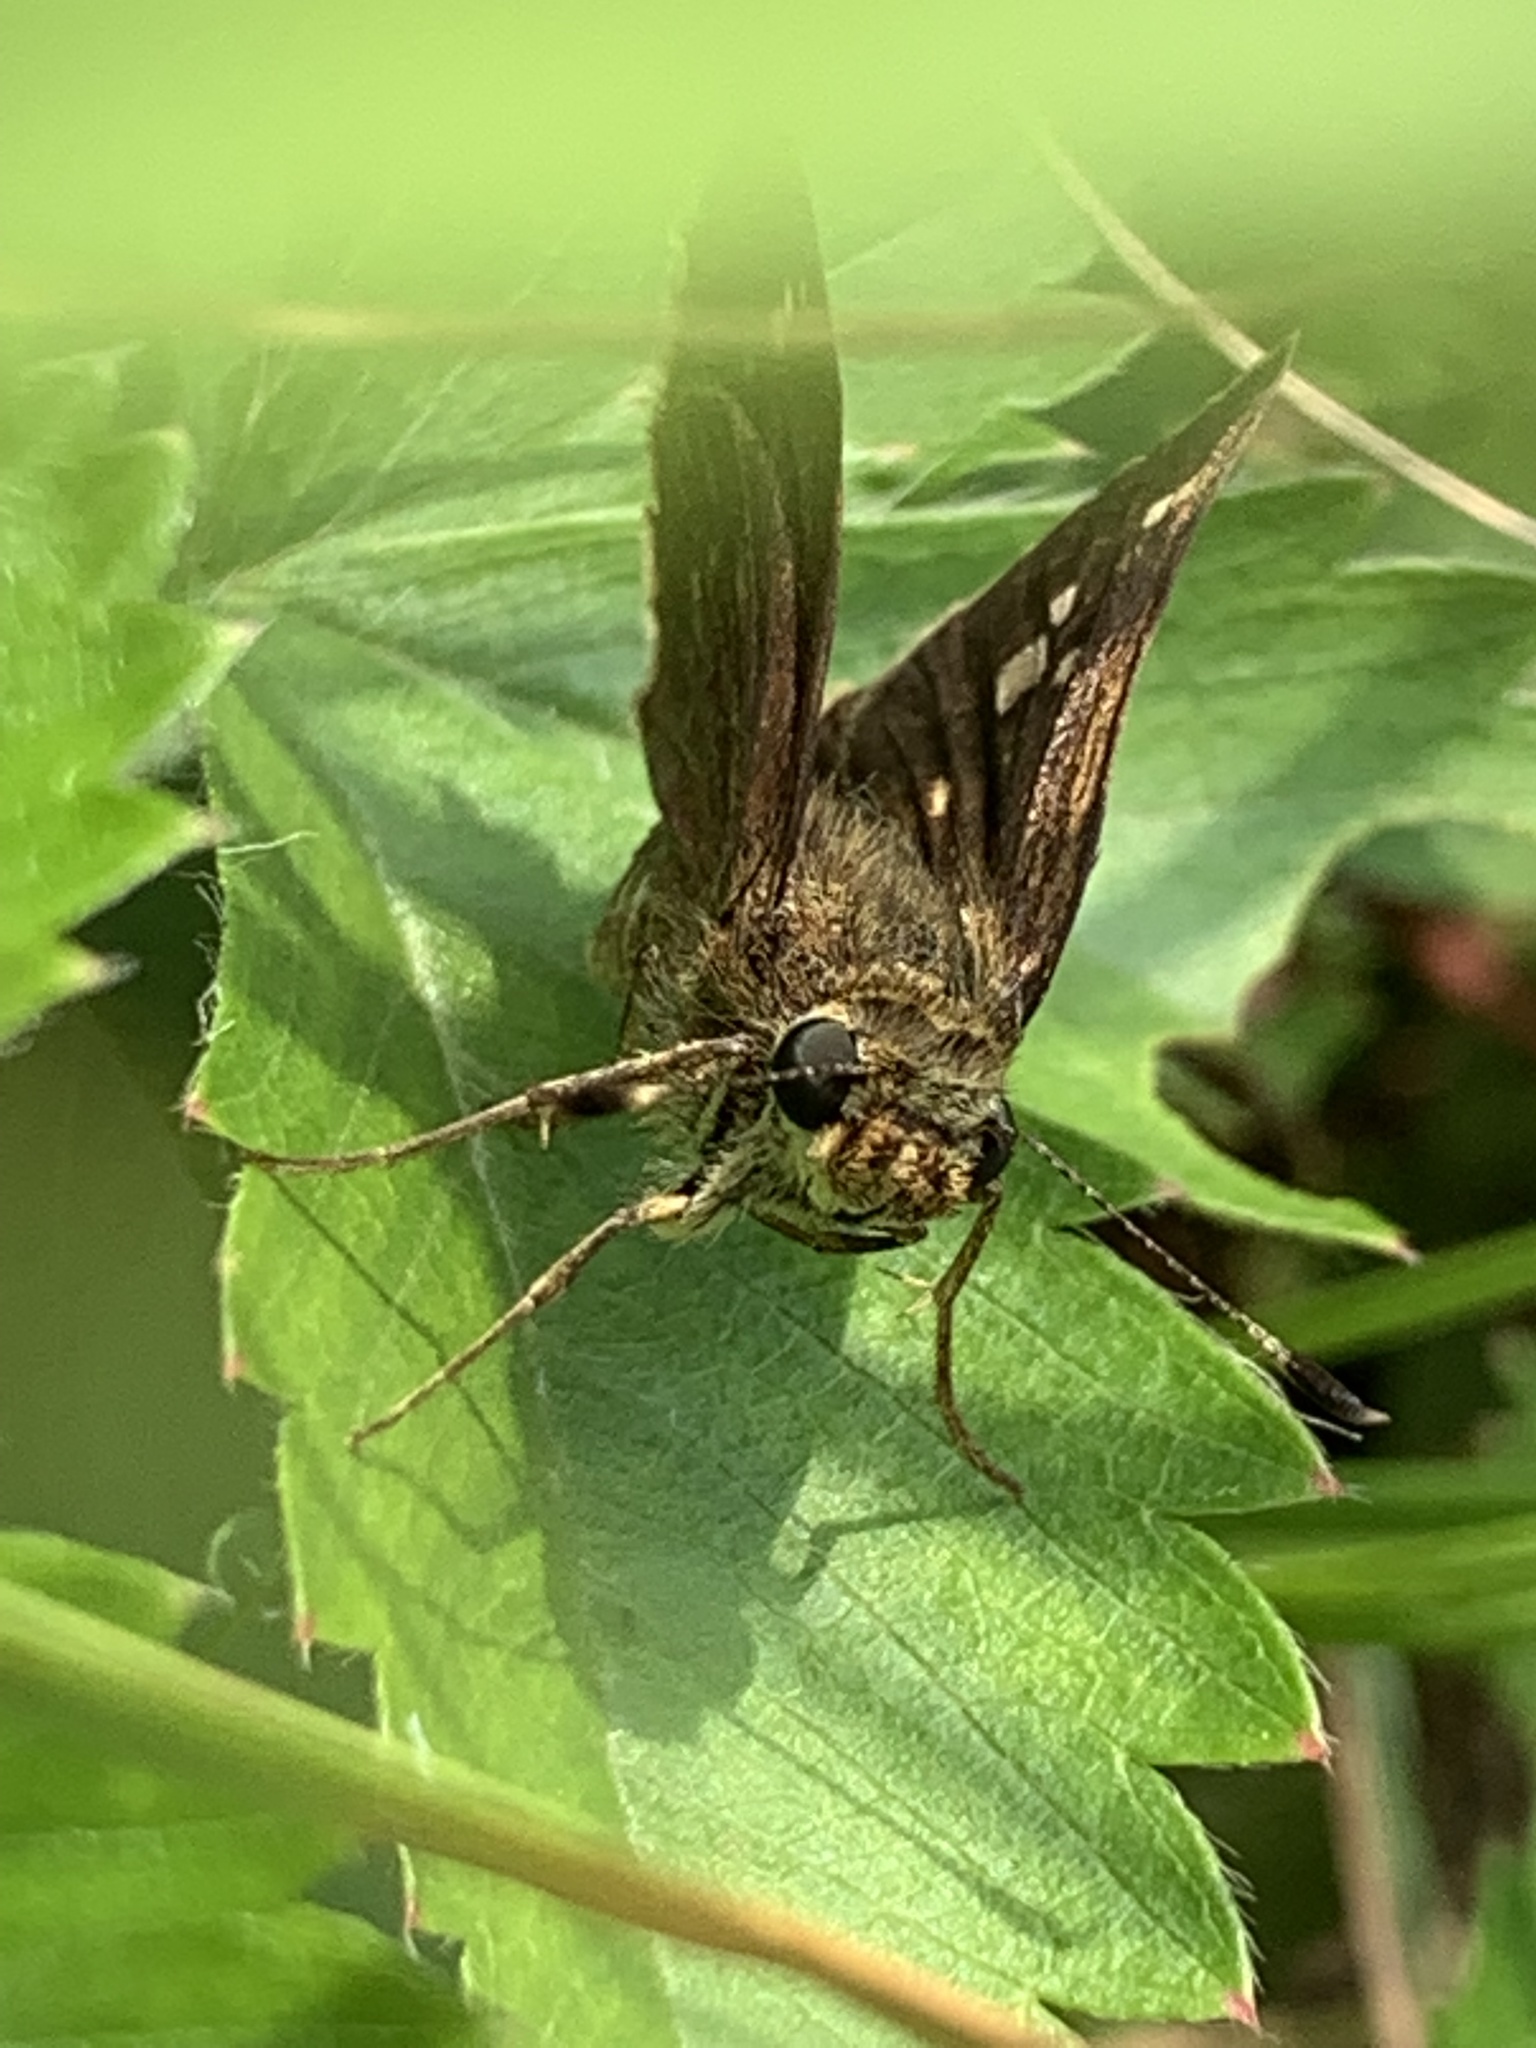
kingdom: Animalia
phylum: Arthropoda
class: Insecta
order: Lepidoptera
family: Hesperiidae
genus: Vernia
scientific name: Vernia verna
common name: Little glassywing
